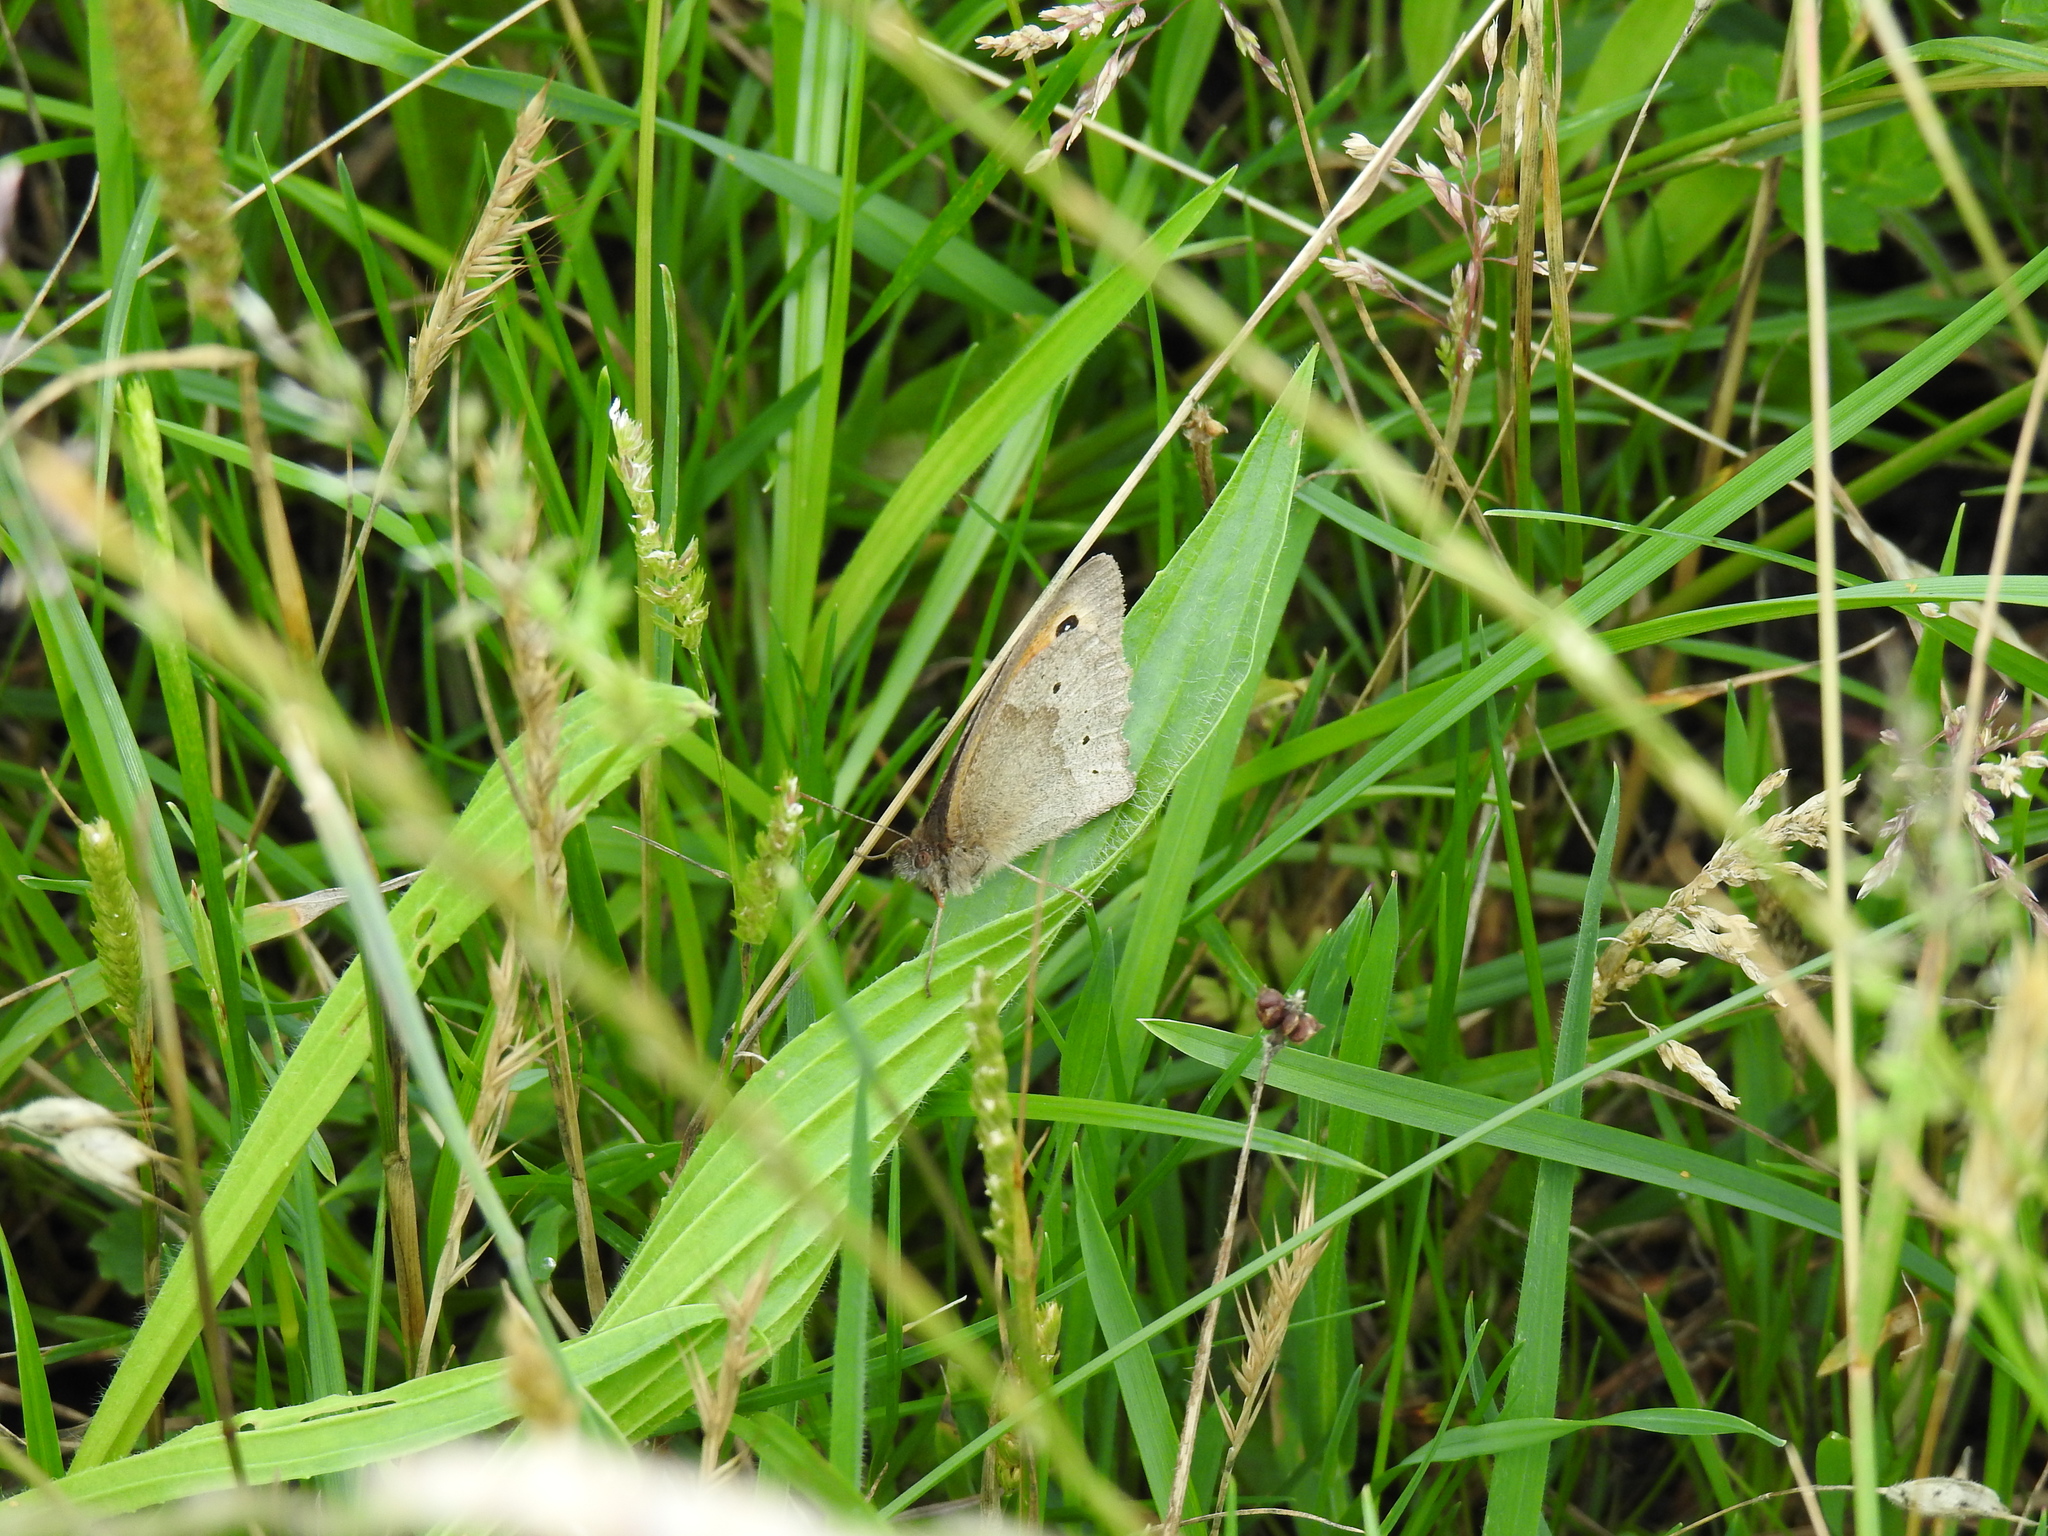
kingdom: Animalia
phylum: Arthropoda
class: Insecta
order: Lepidoptera
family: Nymphalidae
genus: Maniola
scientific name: Maniola jurtina
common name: Meadow brown
